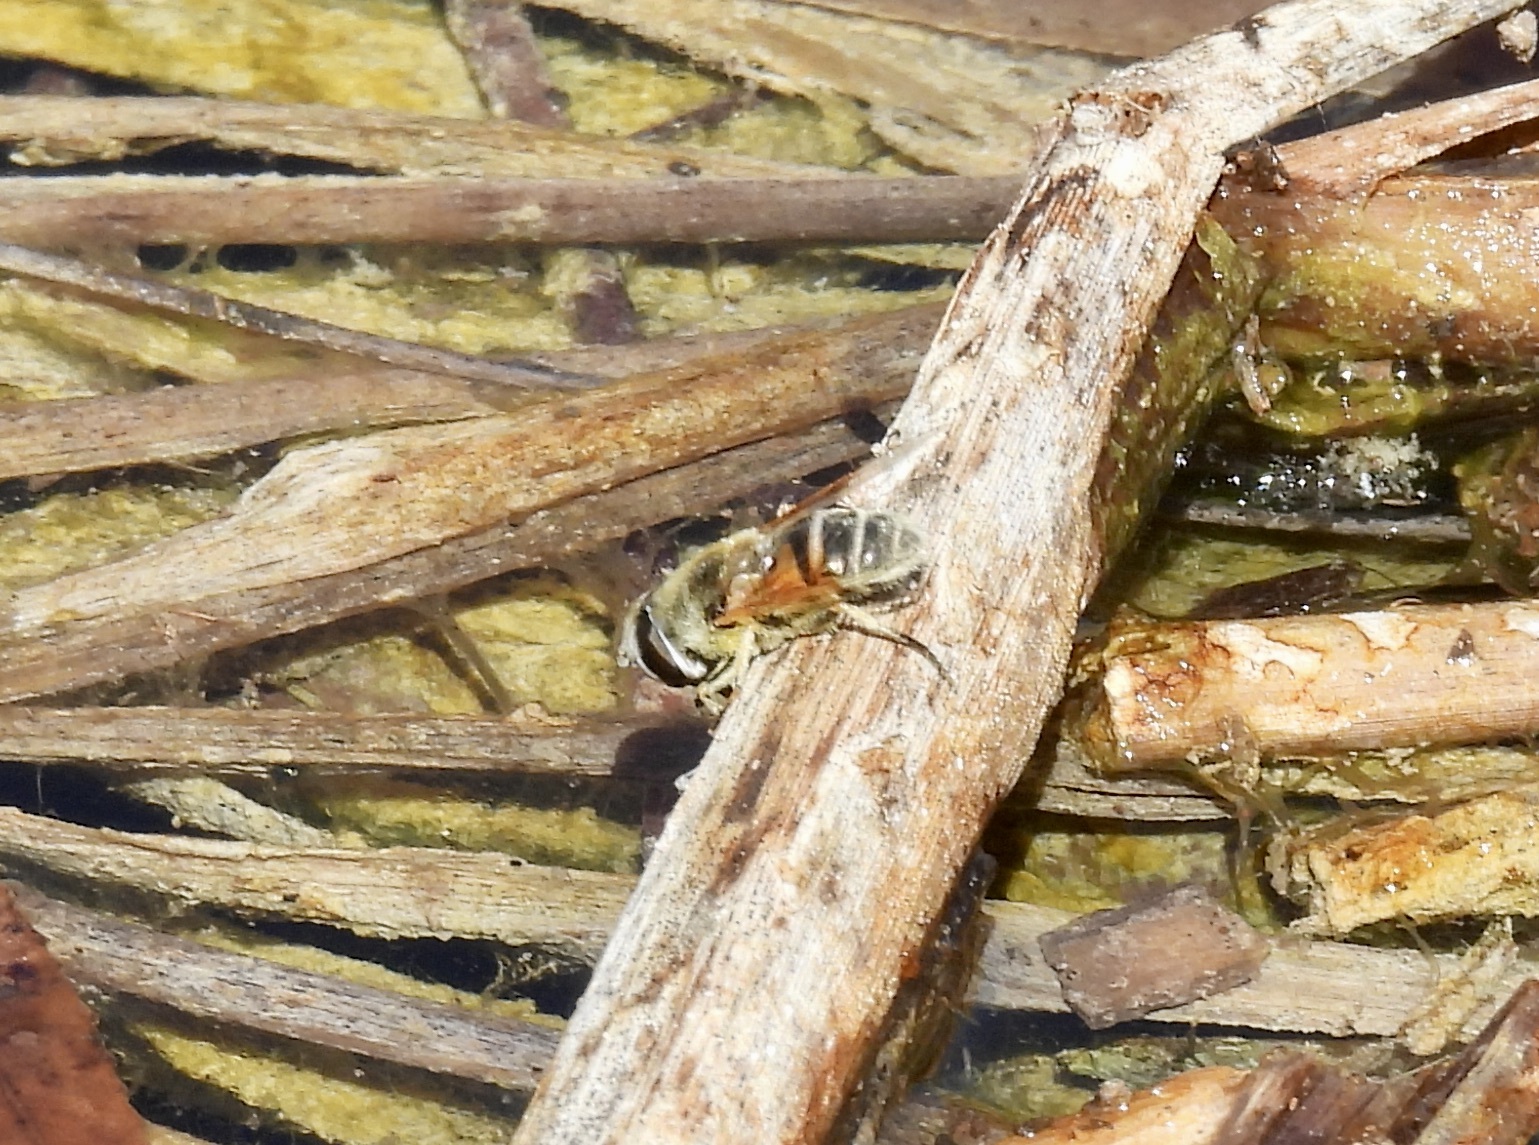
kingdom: Animalia
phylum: Arthropoda
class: Insecta
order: Diptera
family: Syrphidae
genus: Eristalis
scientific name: Eristalis stipator
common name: Yellow-shouldered drone fly
